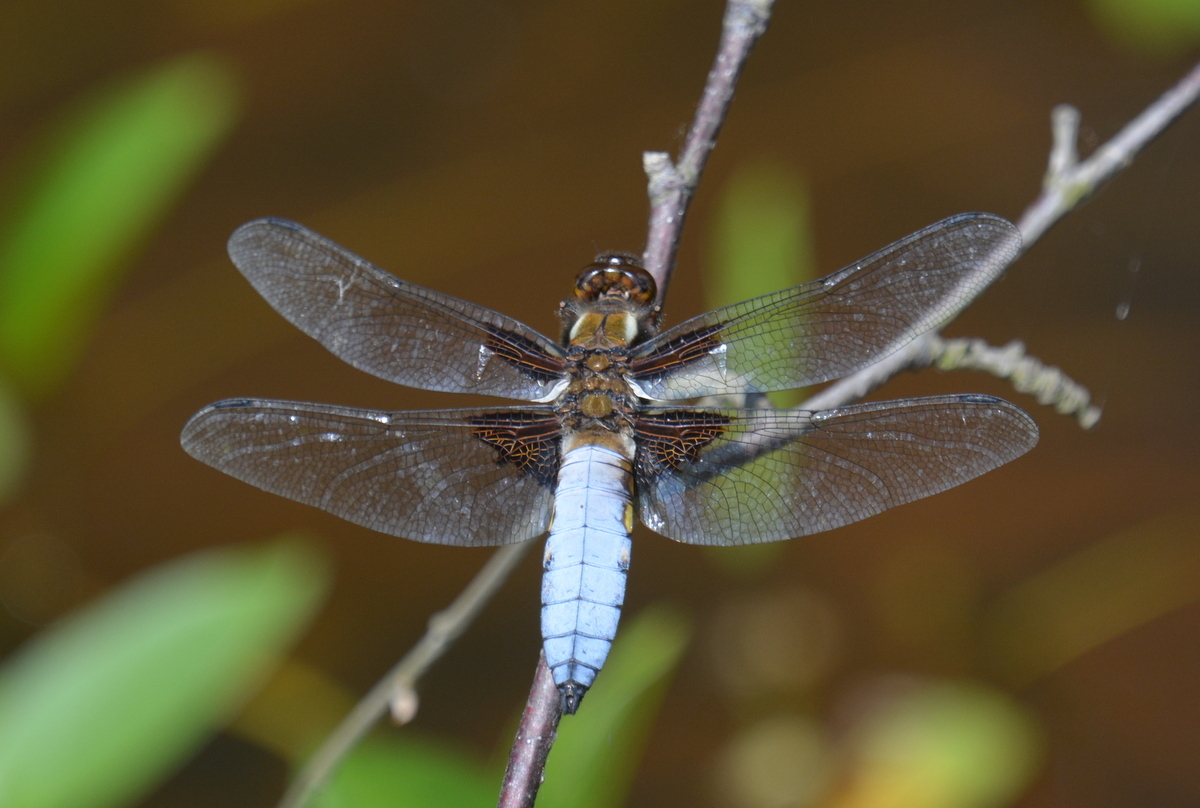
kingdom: Animalia
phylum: Arthropoda
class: Insecta
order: Odonata
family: Libellulidae
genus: Libellula
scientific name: Libellula depressa
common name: Broad-bodied chaser
